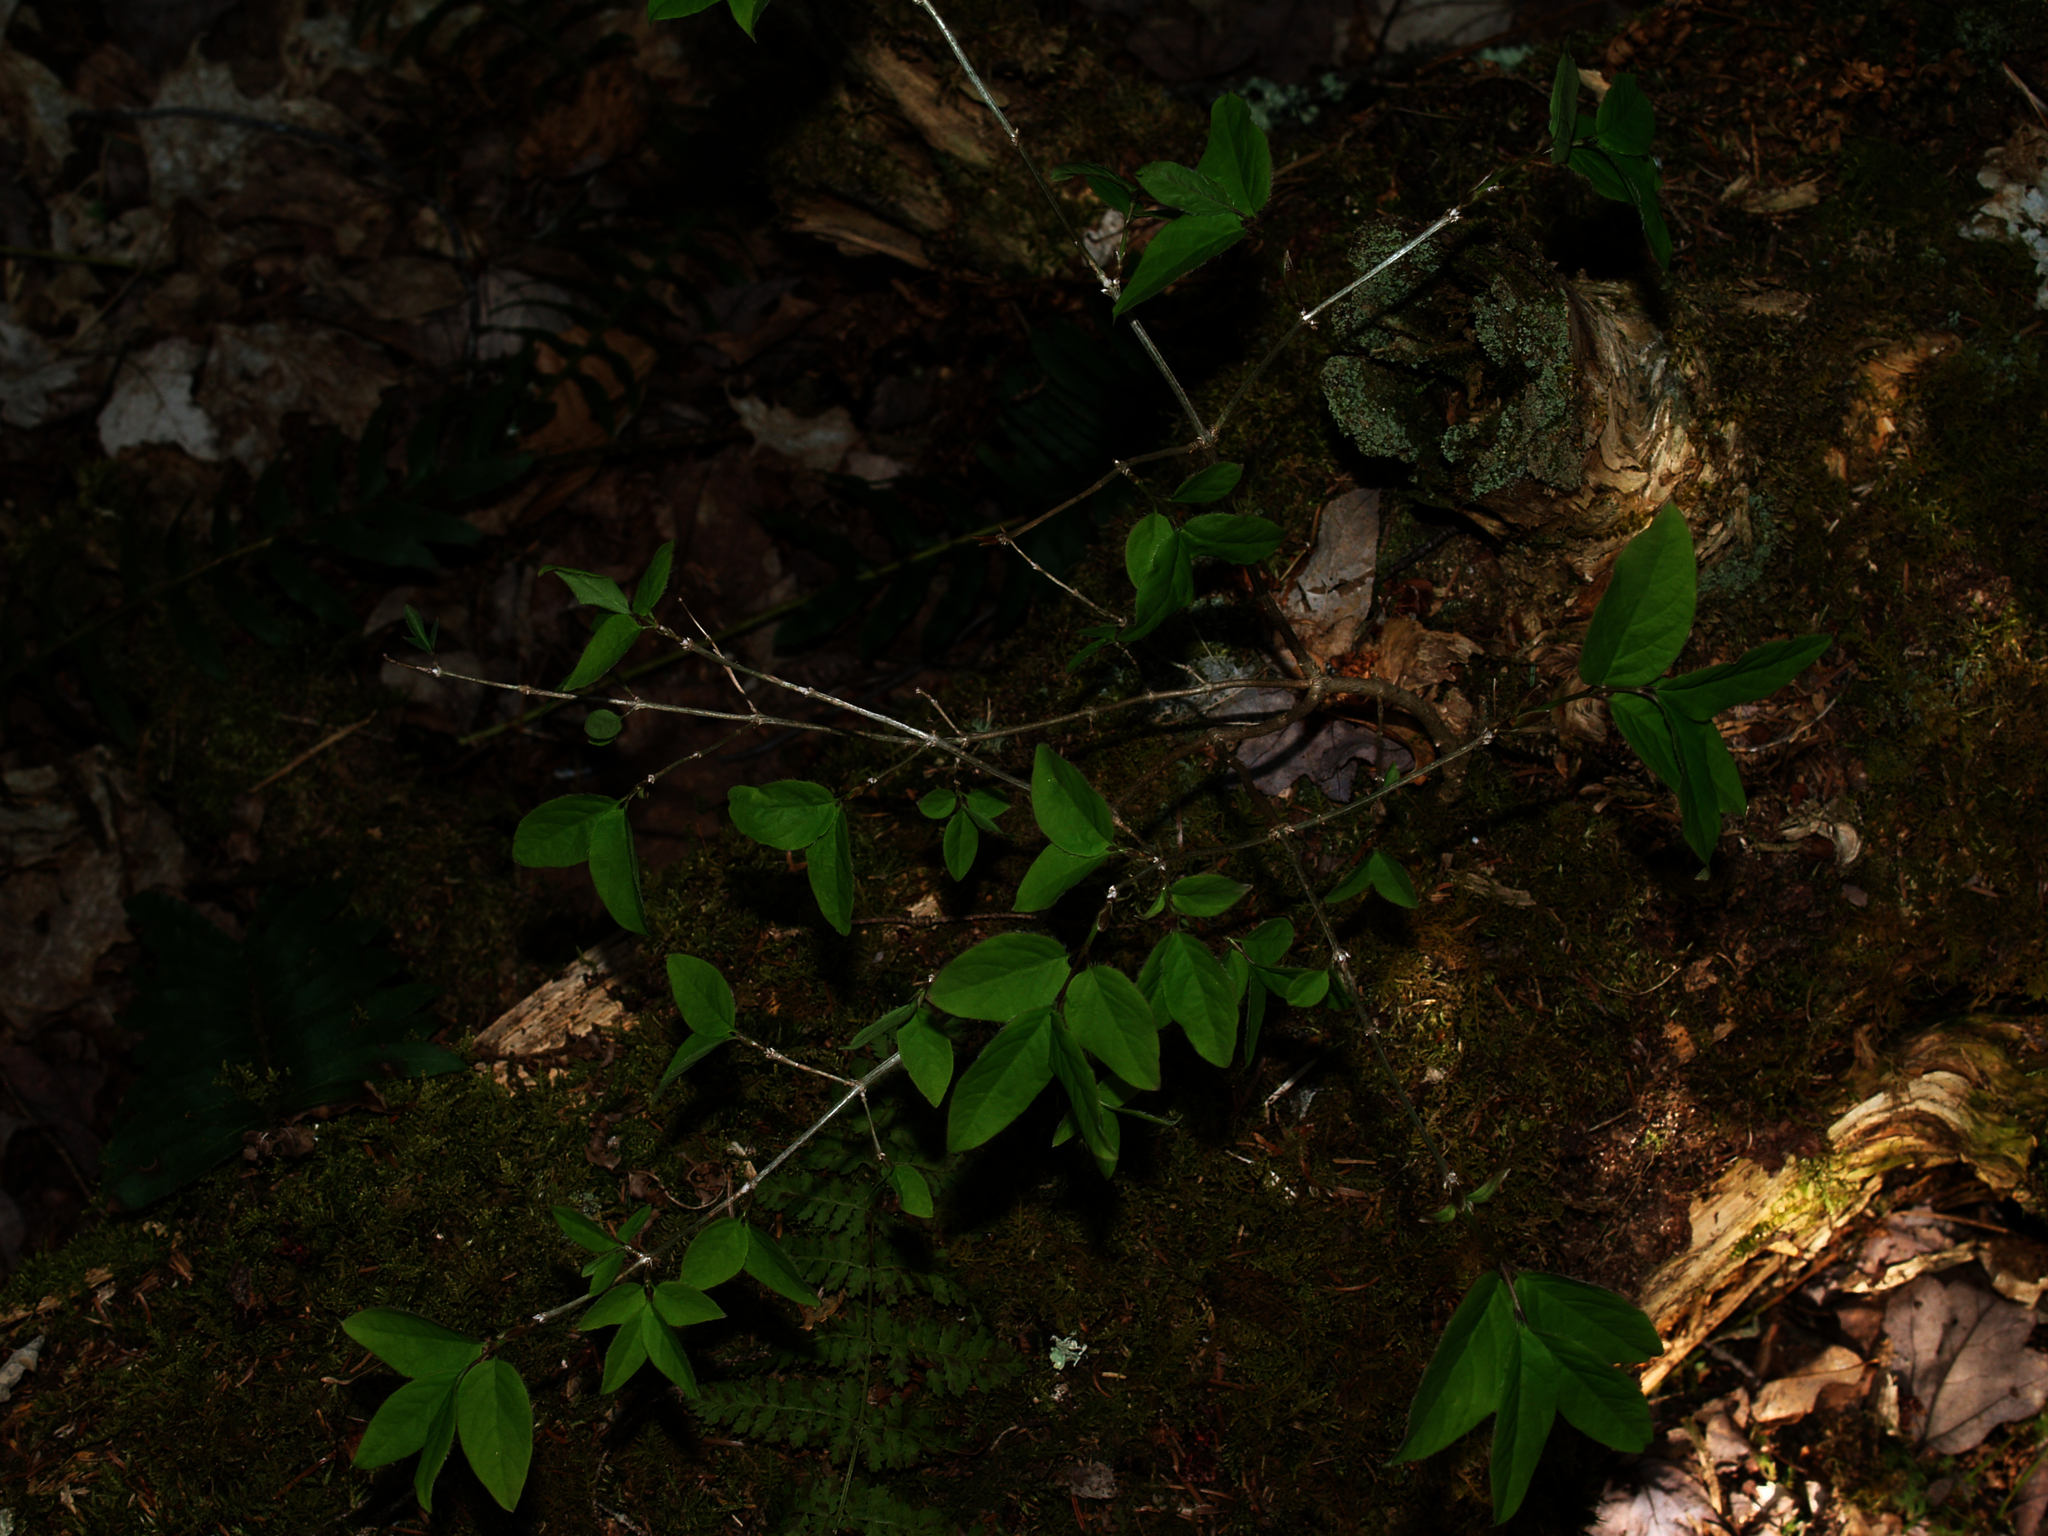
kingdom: Plantae
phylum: Tracheophyta
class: Magnoliopsida
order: Dipsacales
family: Caprifoliaceae
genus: Lonicera
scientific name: Lonicera canadensis
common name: American fly-honeysuckle
